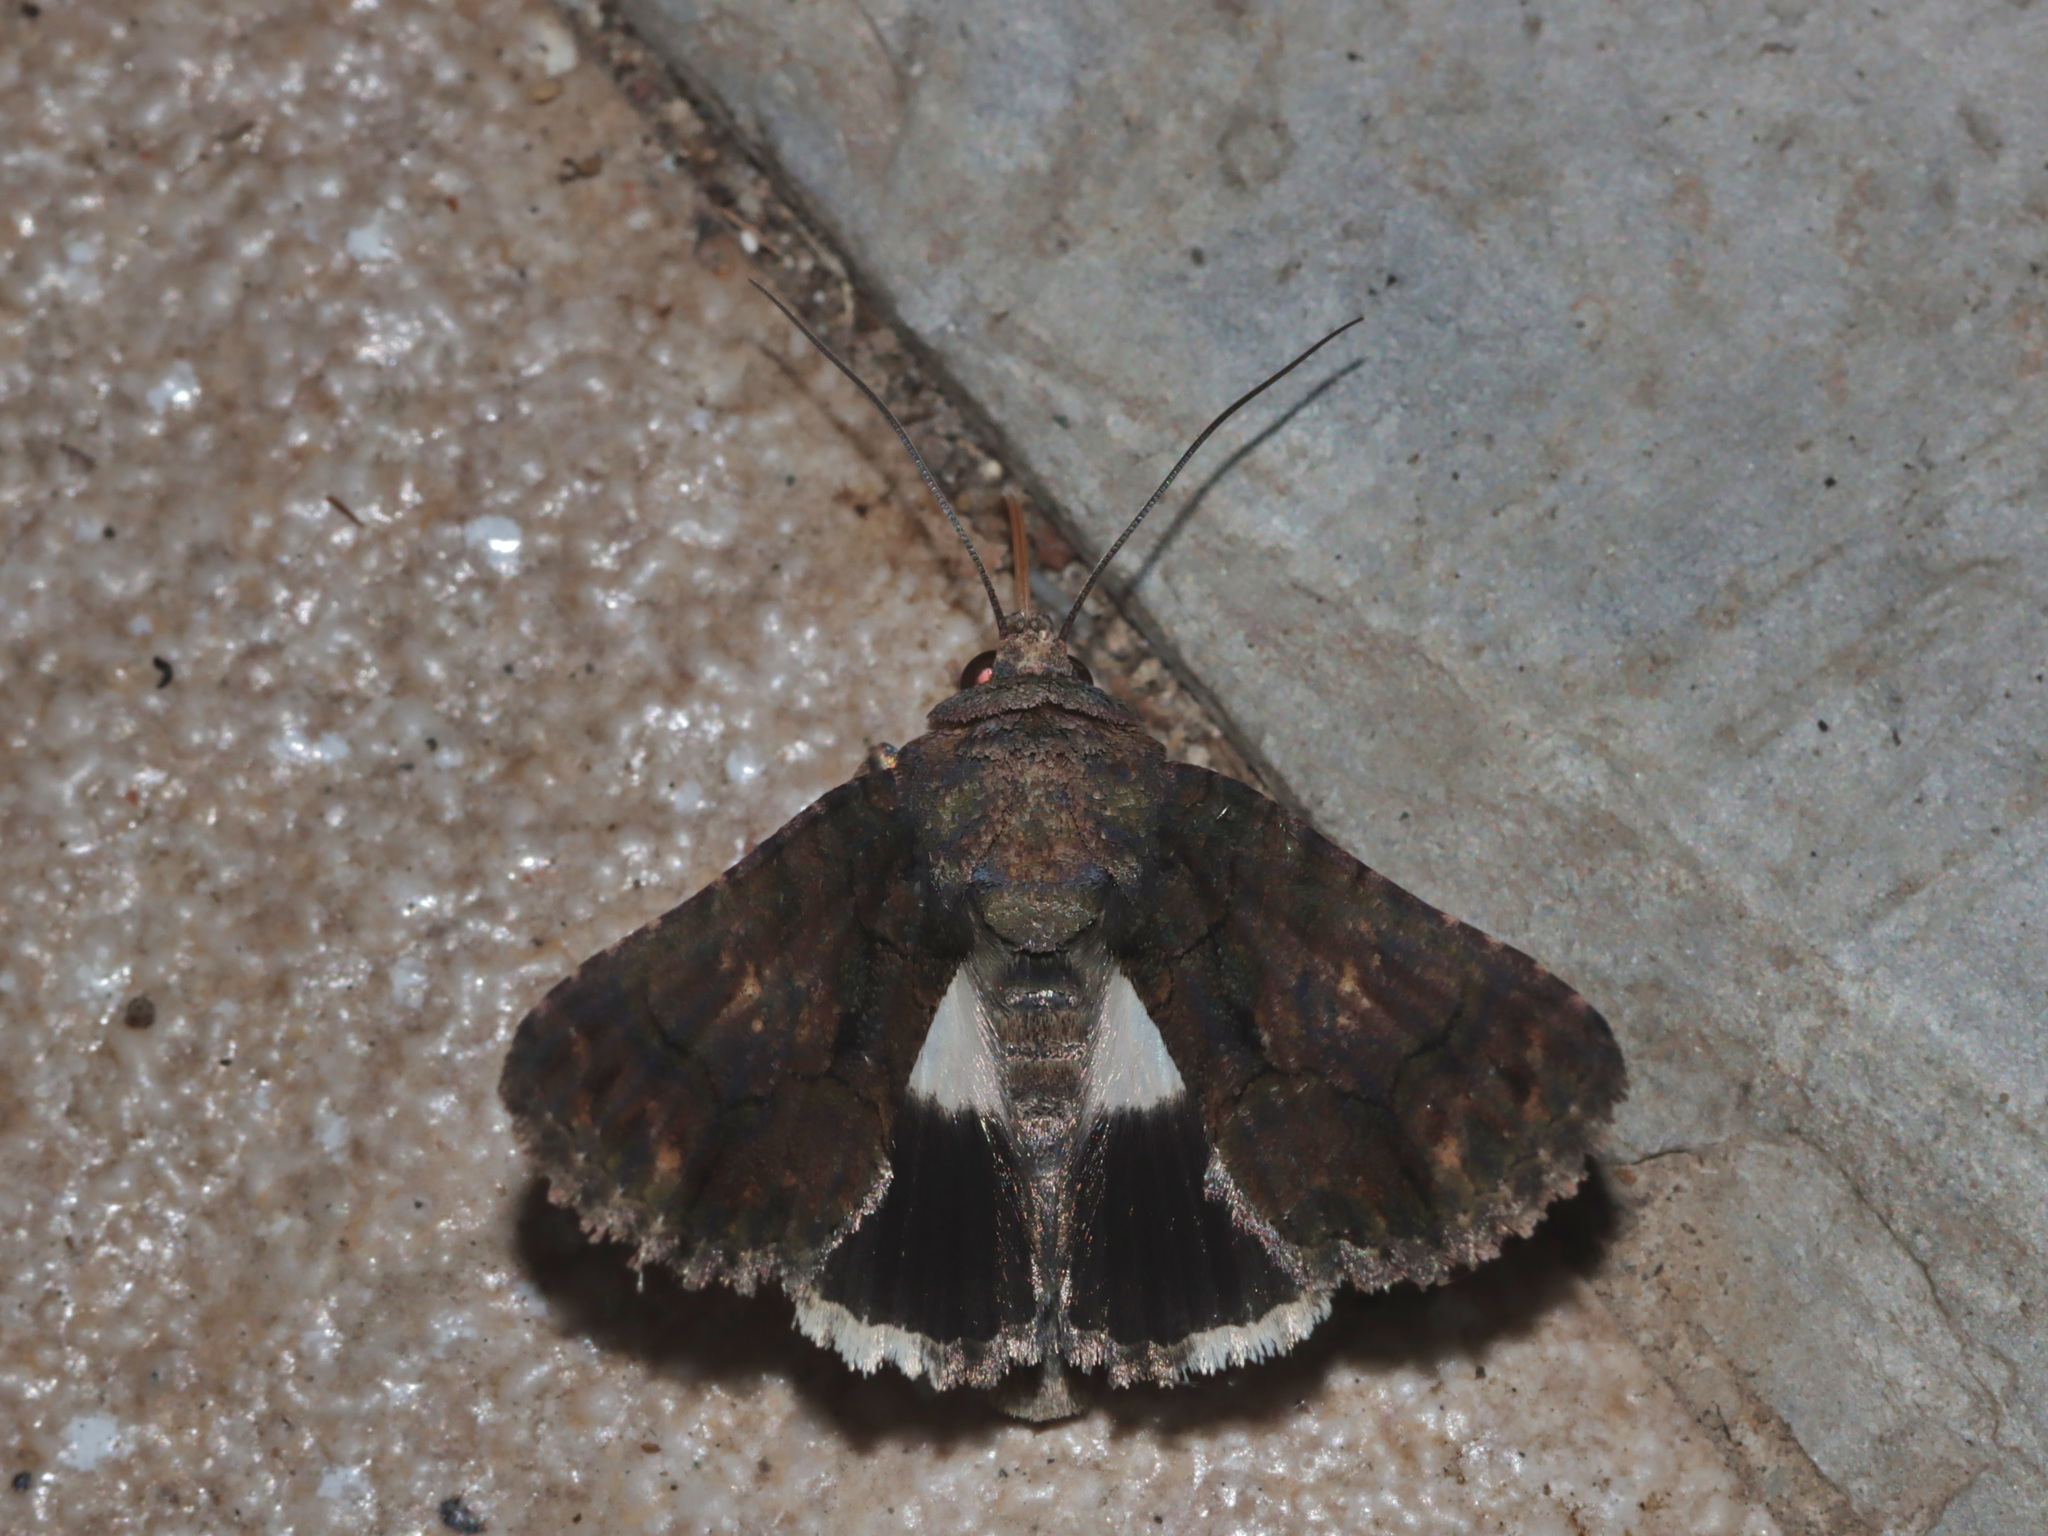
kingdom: Animalia
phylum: Arthropoda
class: Insecta
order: Lepidoptera
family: Noctuidae
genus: Aedia
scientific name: Aedia leucomelas
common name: Sorcerer
